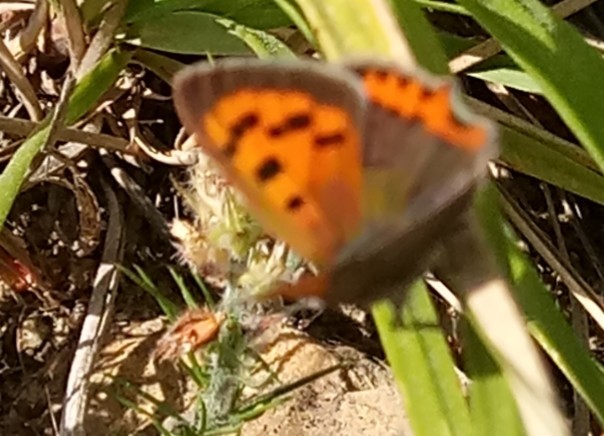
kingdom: Animalia
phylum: Arthropoda
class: Insecta
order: Lepidoptera
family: Lycaenidae
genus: Lycaena
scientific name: Lycaena phlaeas
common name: Small copper
